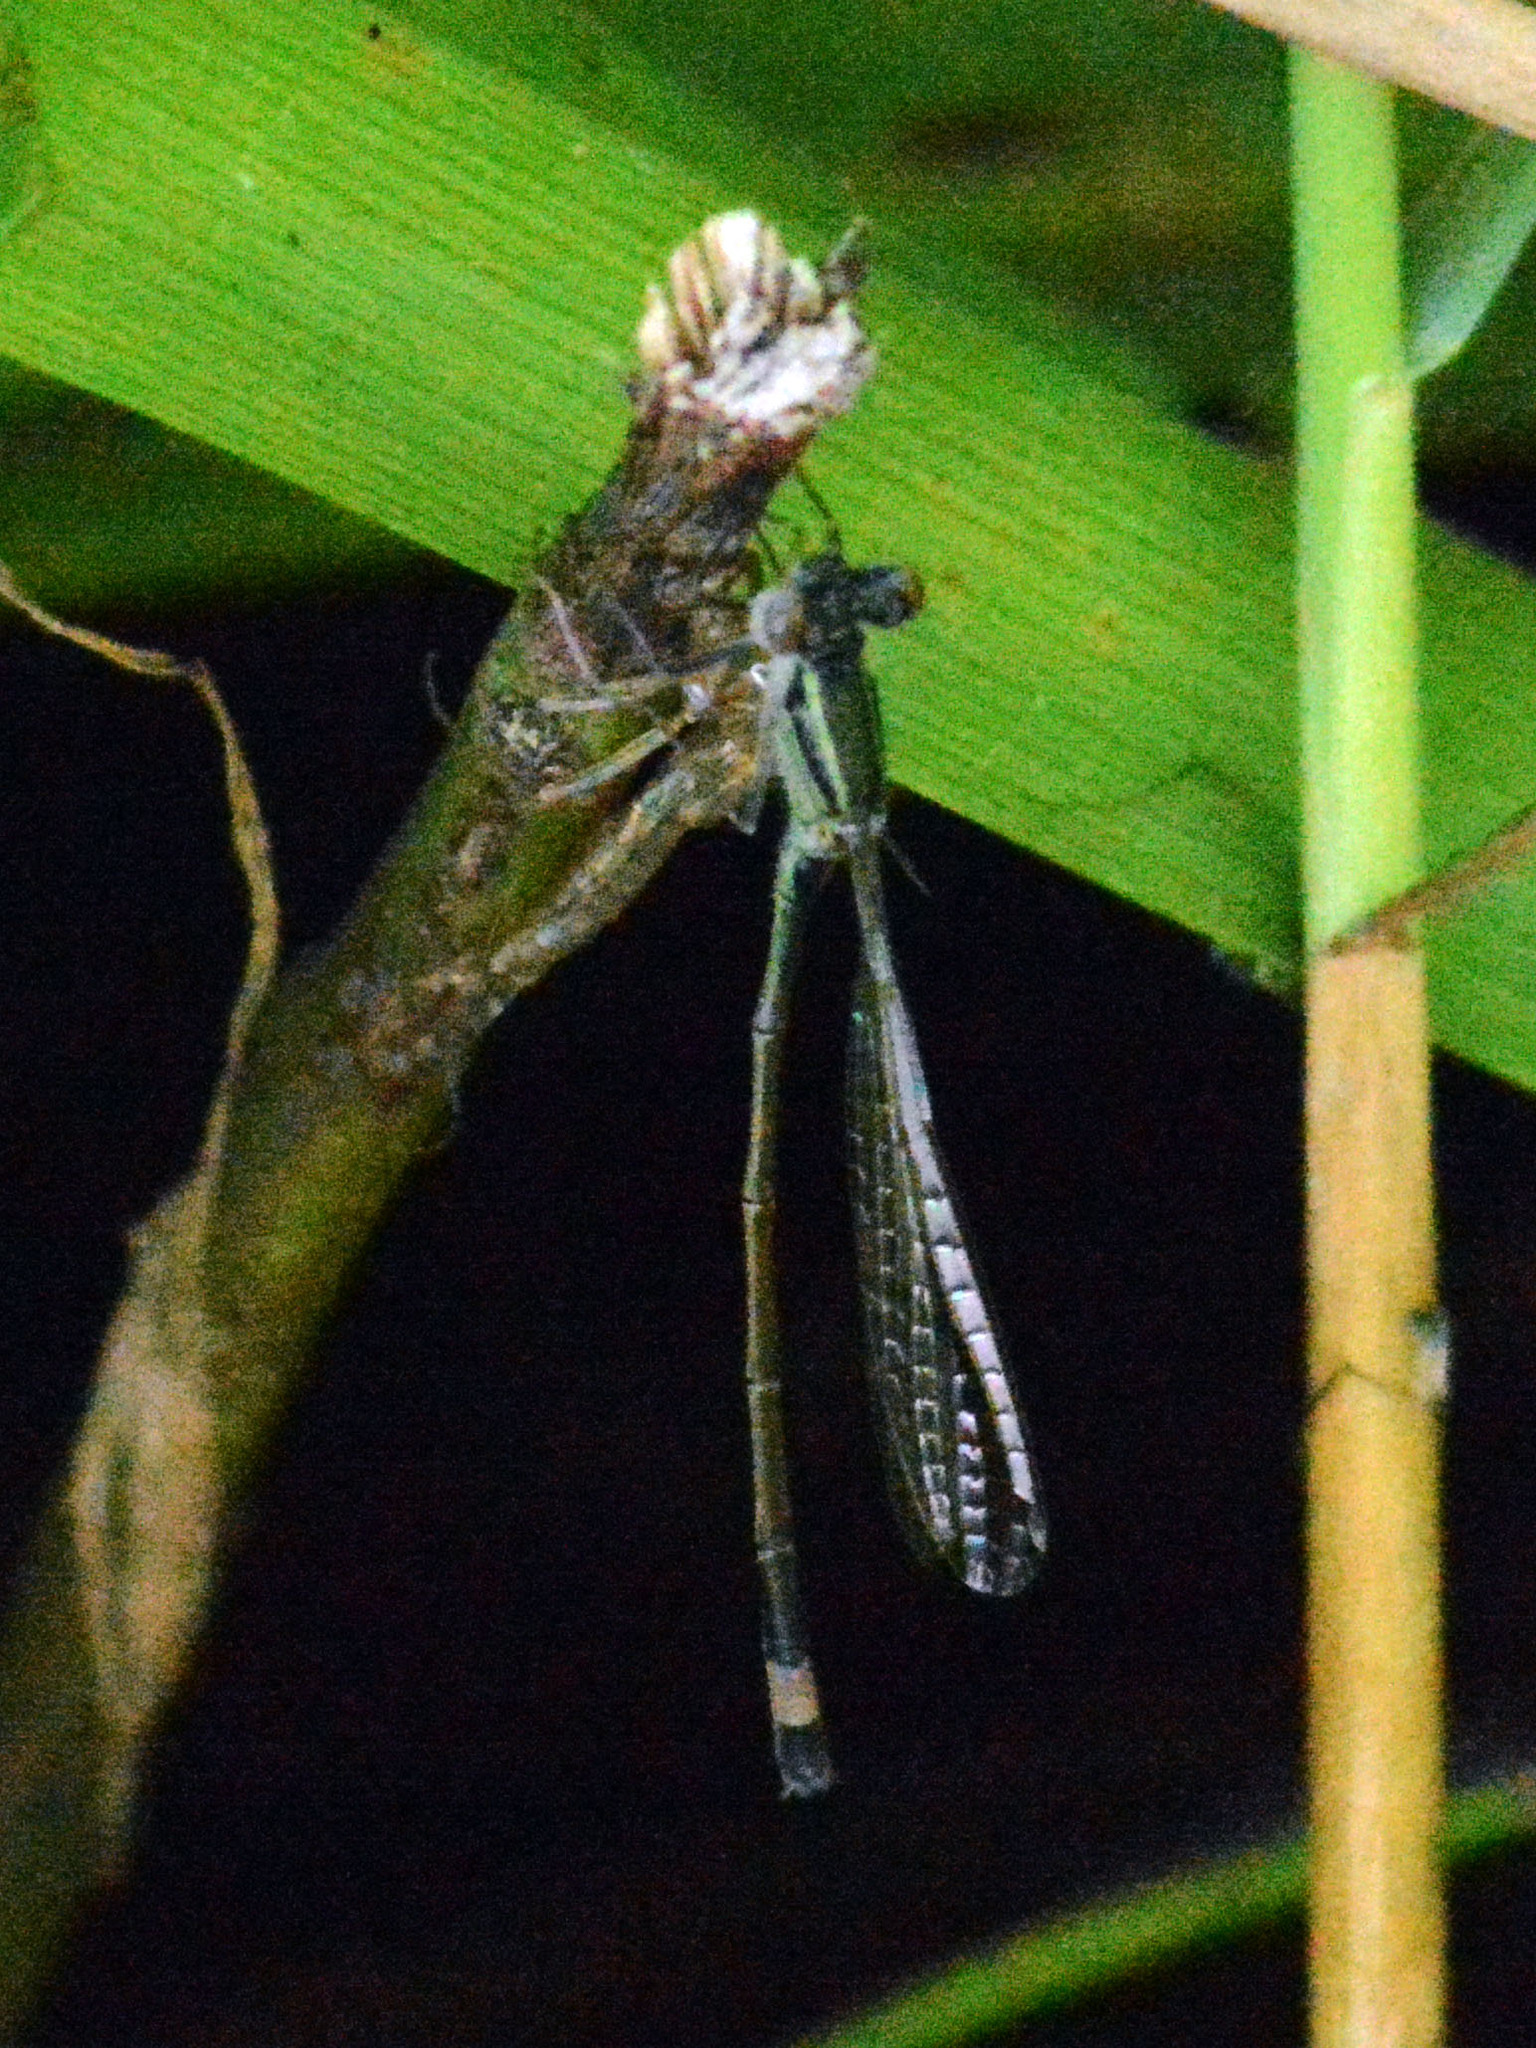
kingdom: Animalia
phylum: Arthropoda
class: Insecta
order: Odonata
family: Coenagrionidae
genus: Ischnura
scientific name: Ischnura elegans
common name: Blue-tailed damselfly
